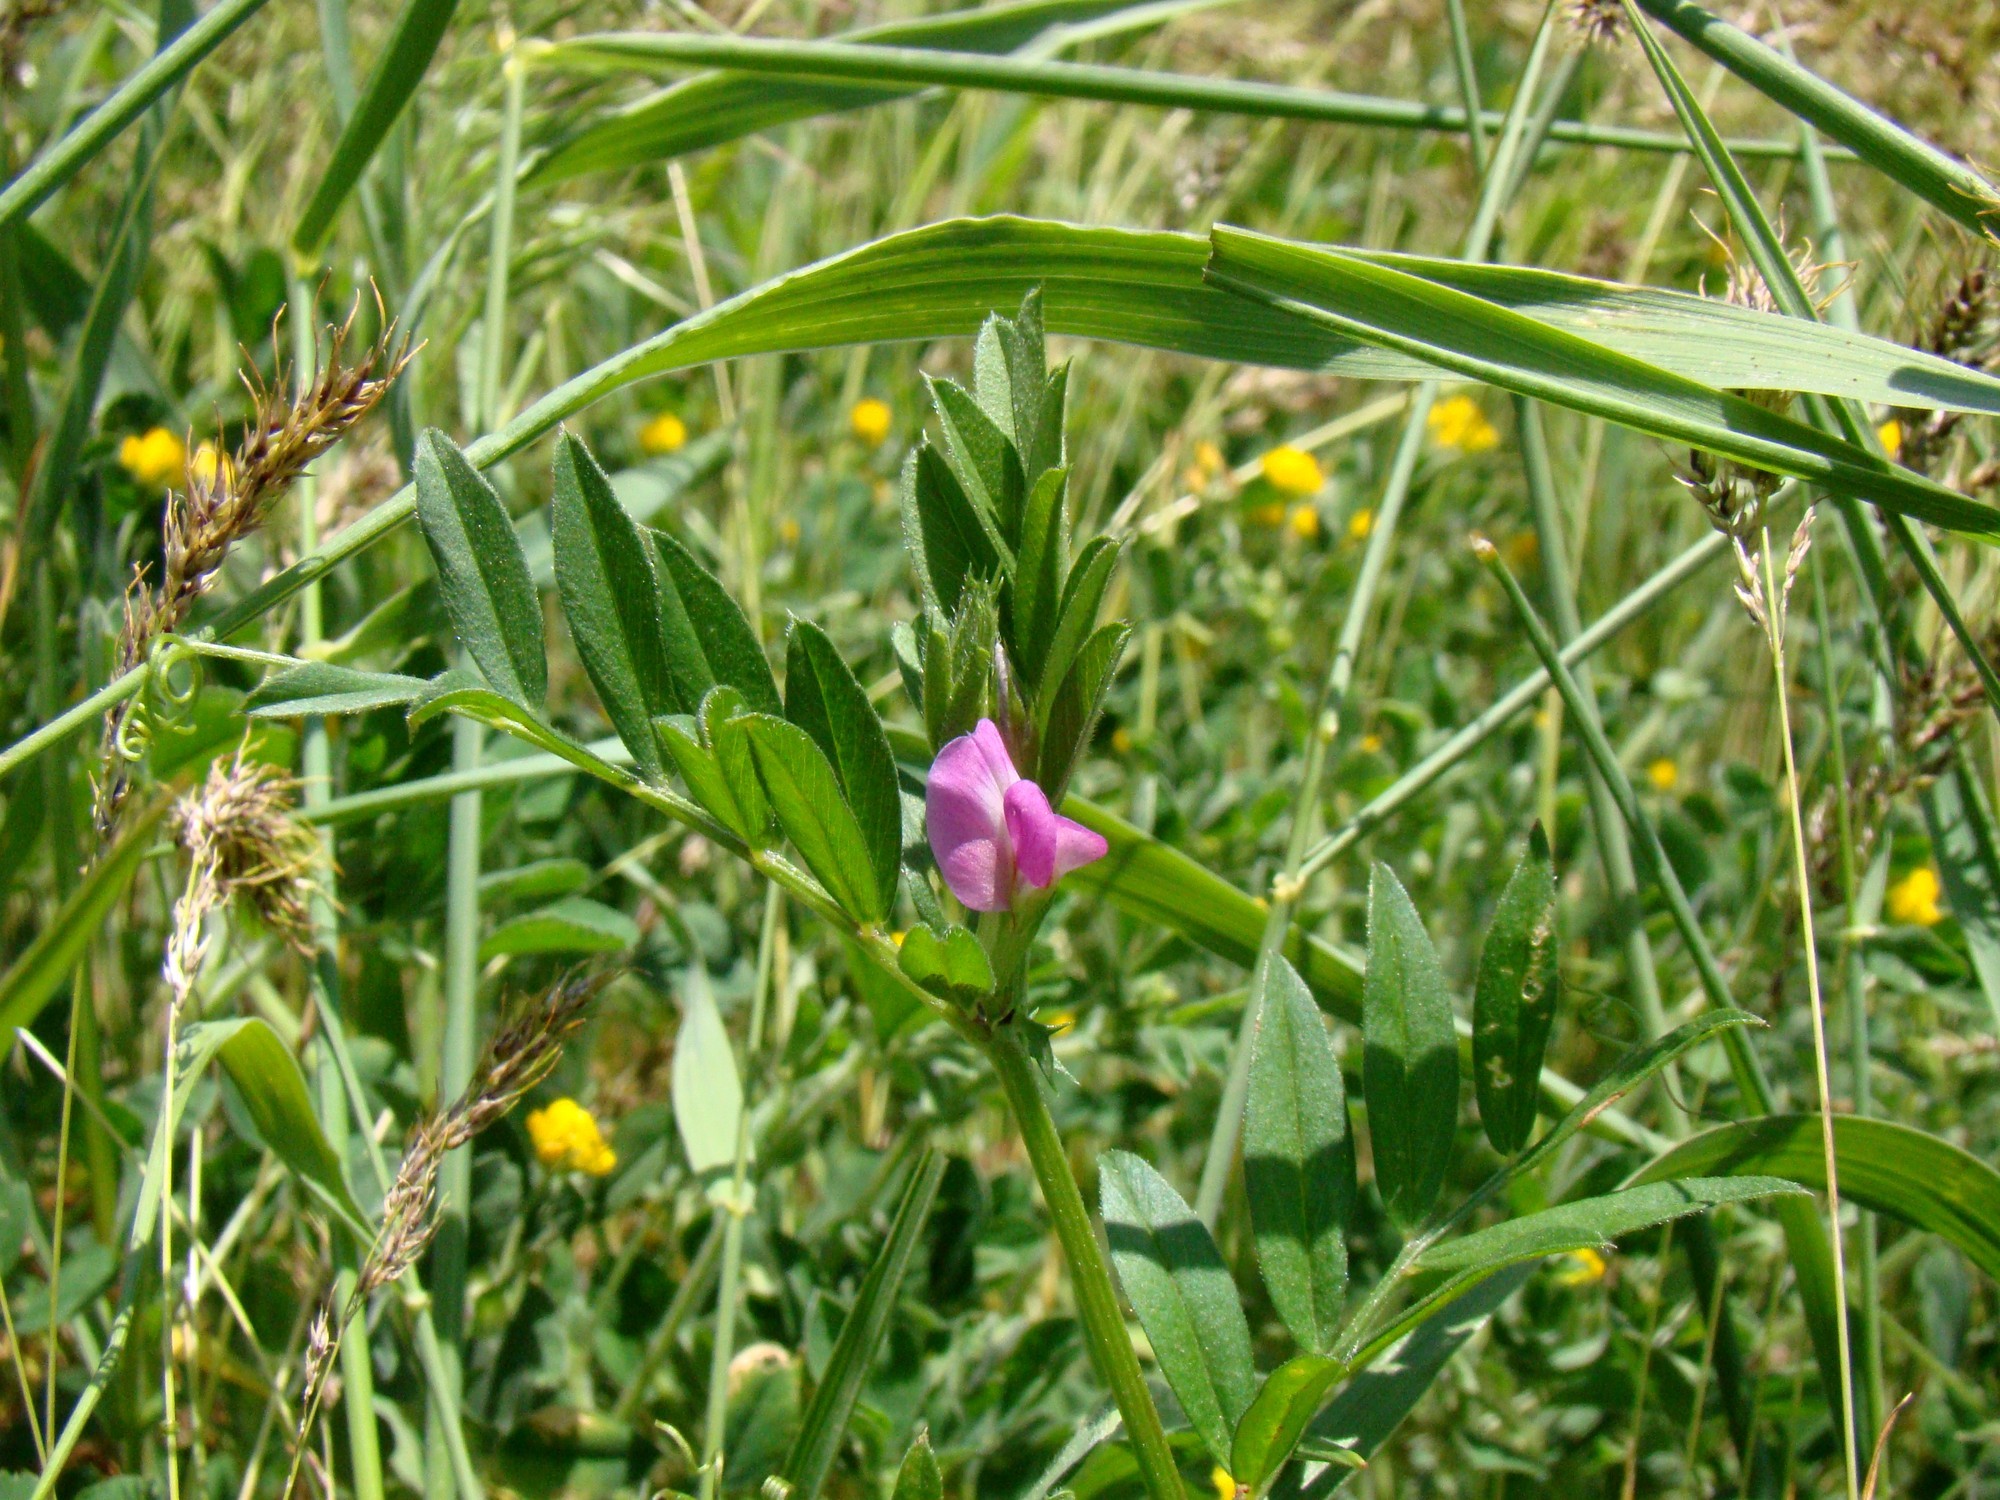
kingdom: Plantae
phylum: Tracheophyta
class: Magnoliopsida
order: Fabales
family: Fabaceae
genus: Vicia
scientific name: Vicia sativa
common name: Garden vetch
